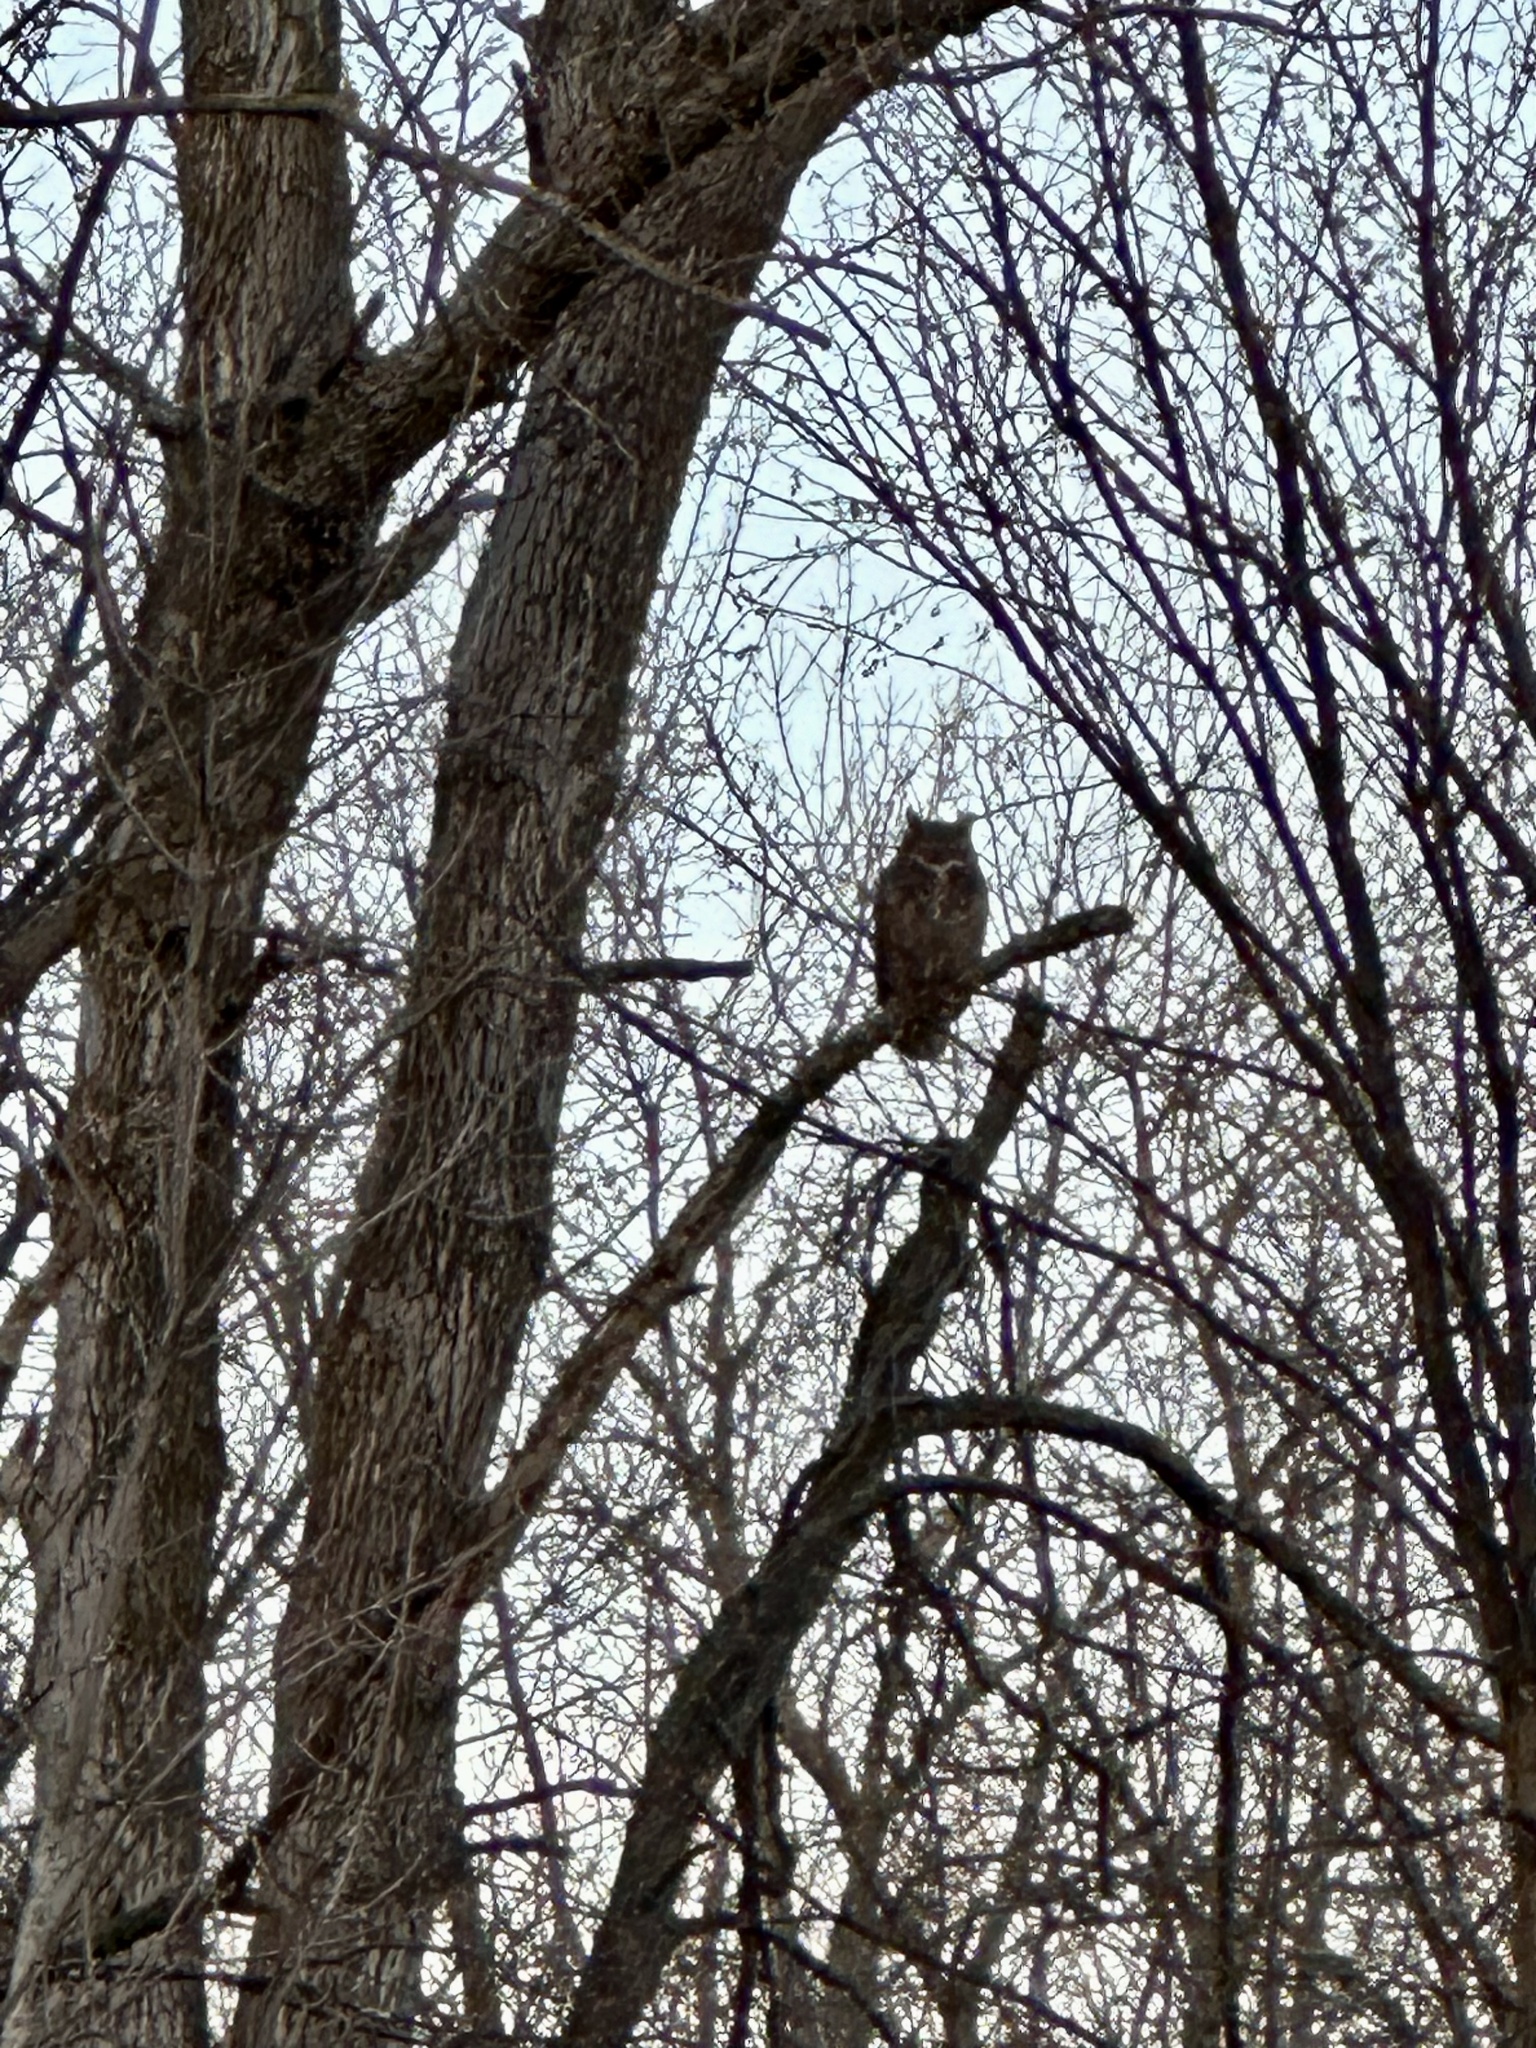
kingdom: Animalia
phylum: Chordata
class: Aves
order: Strigiformes
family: Strigidae
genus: Bubo
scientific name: Bubo virginianus
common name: Great horned owl
